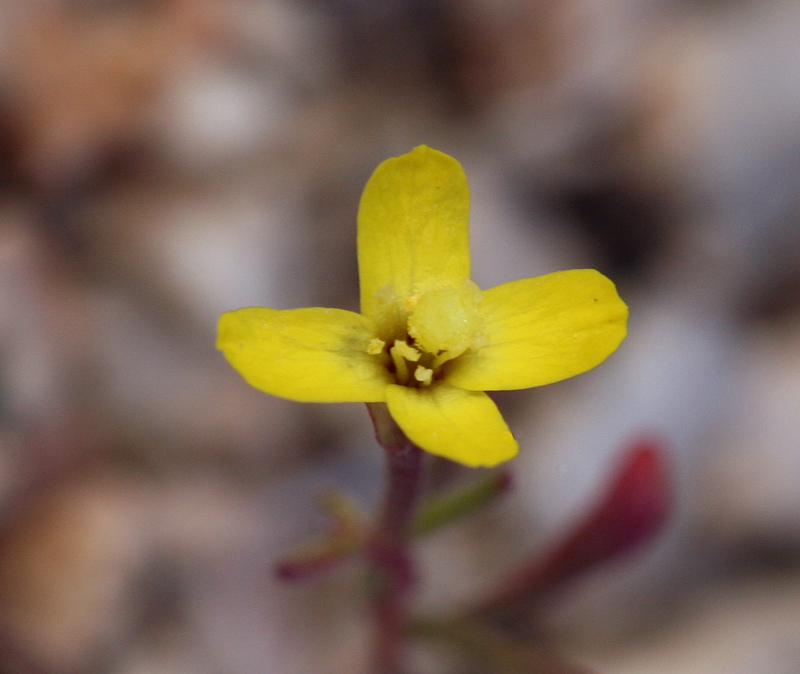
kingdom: Plantae
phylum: Tracheophyta
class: Magnoliopsida
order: Myrtales
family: Onagraceae
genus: Camissonia
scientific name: Camissonia pusilla
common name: Obscure camissonia
